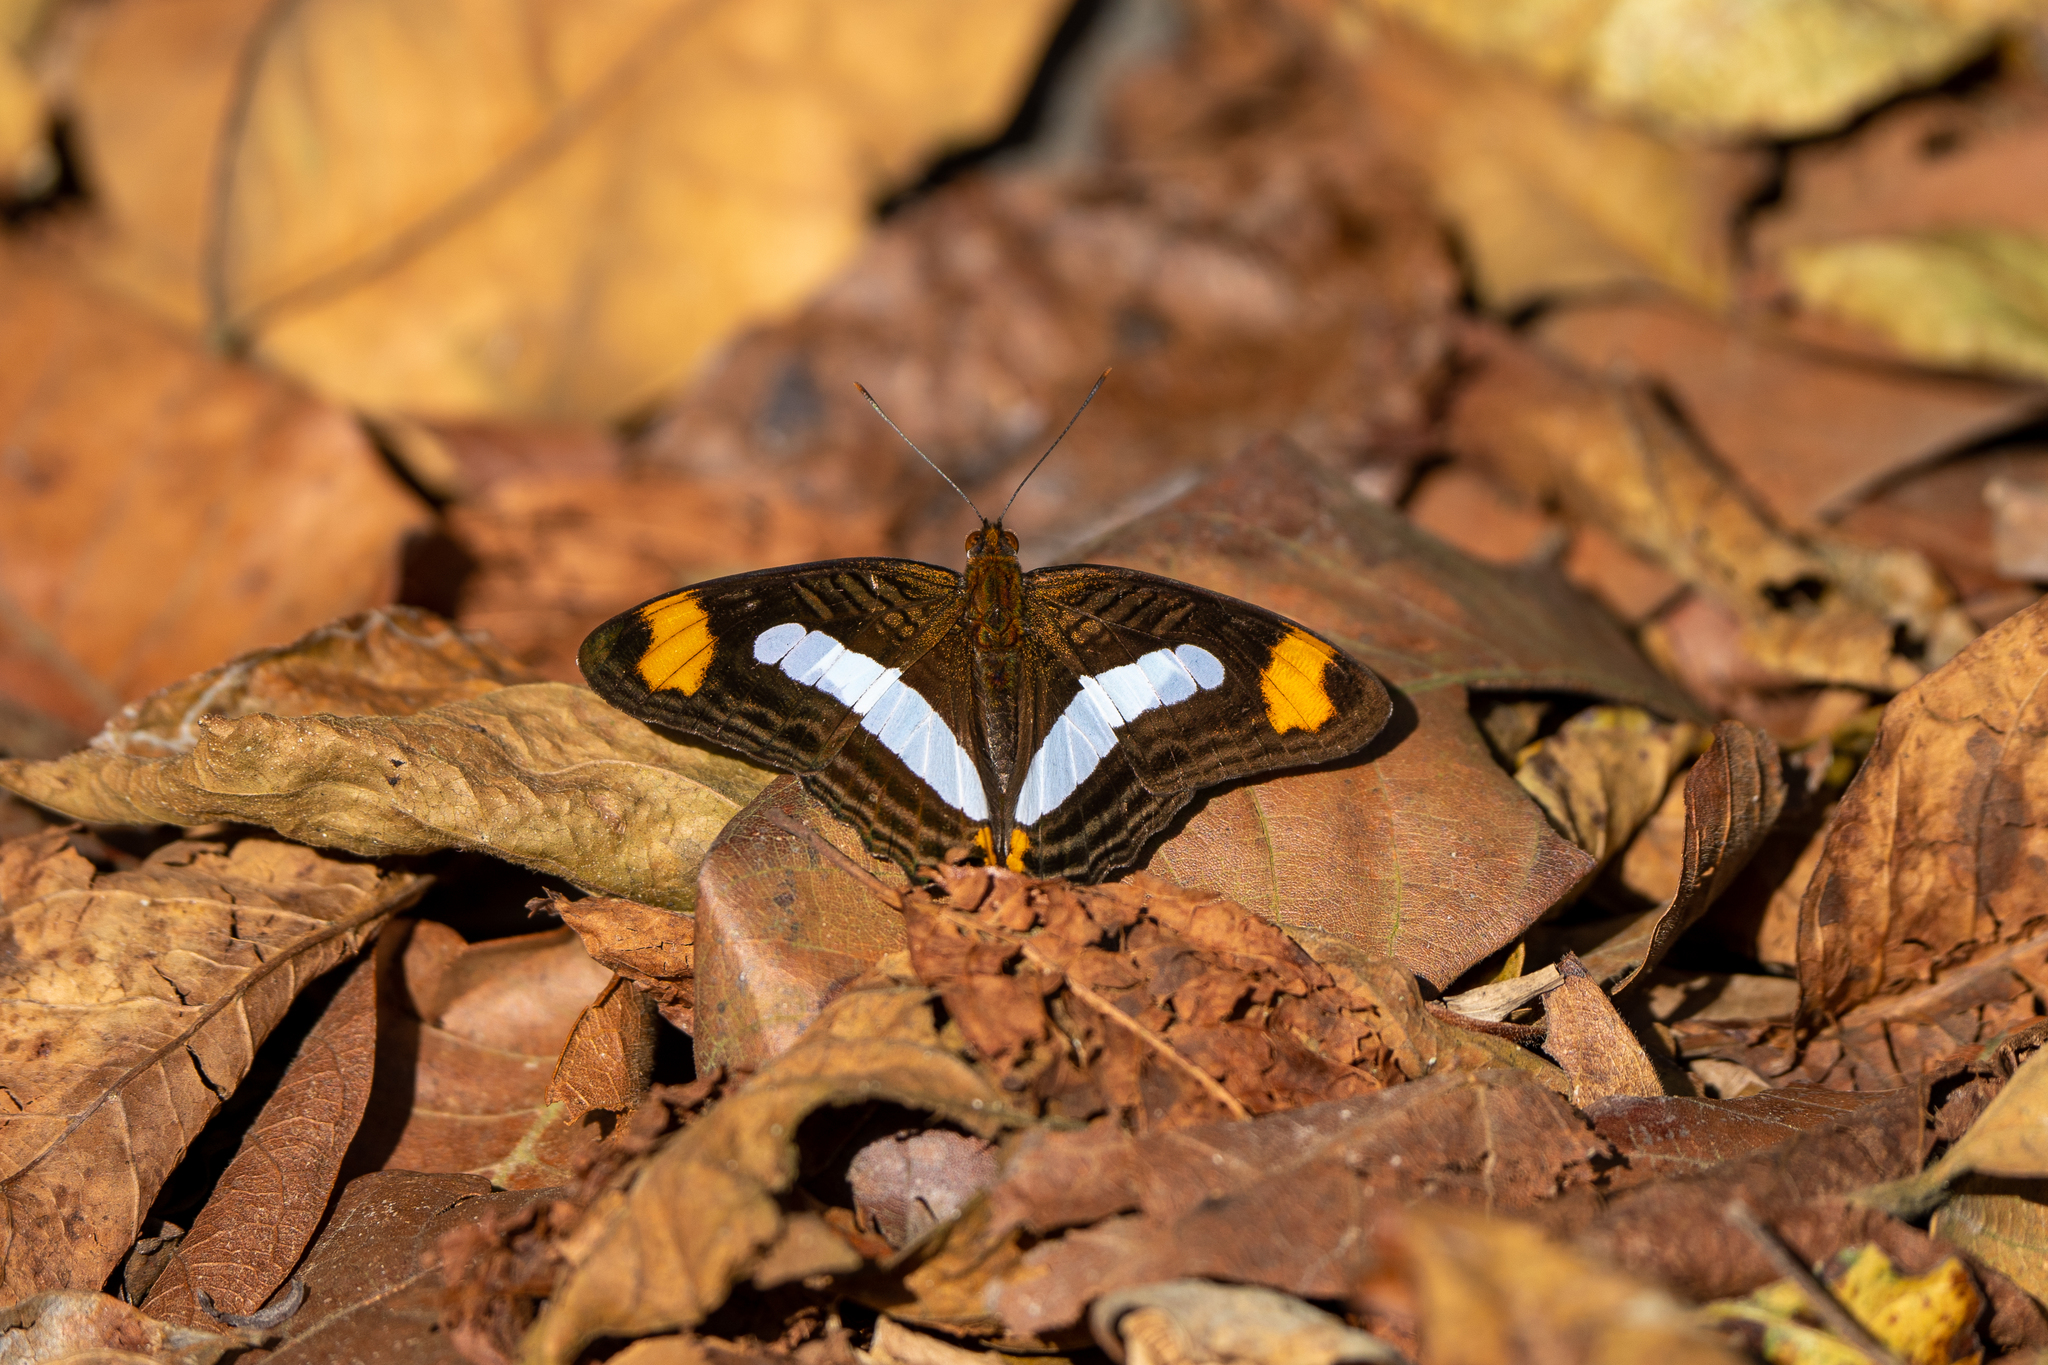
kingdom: Animalia
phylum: Arthropoda
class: Insecta
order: Lepidoptera
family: Nymphalidae
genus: Limenitis
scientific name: Limenitis iphiclus
